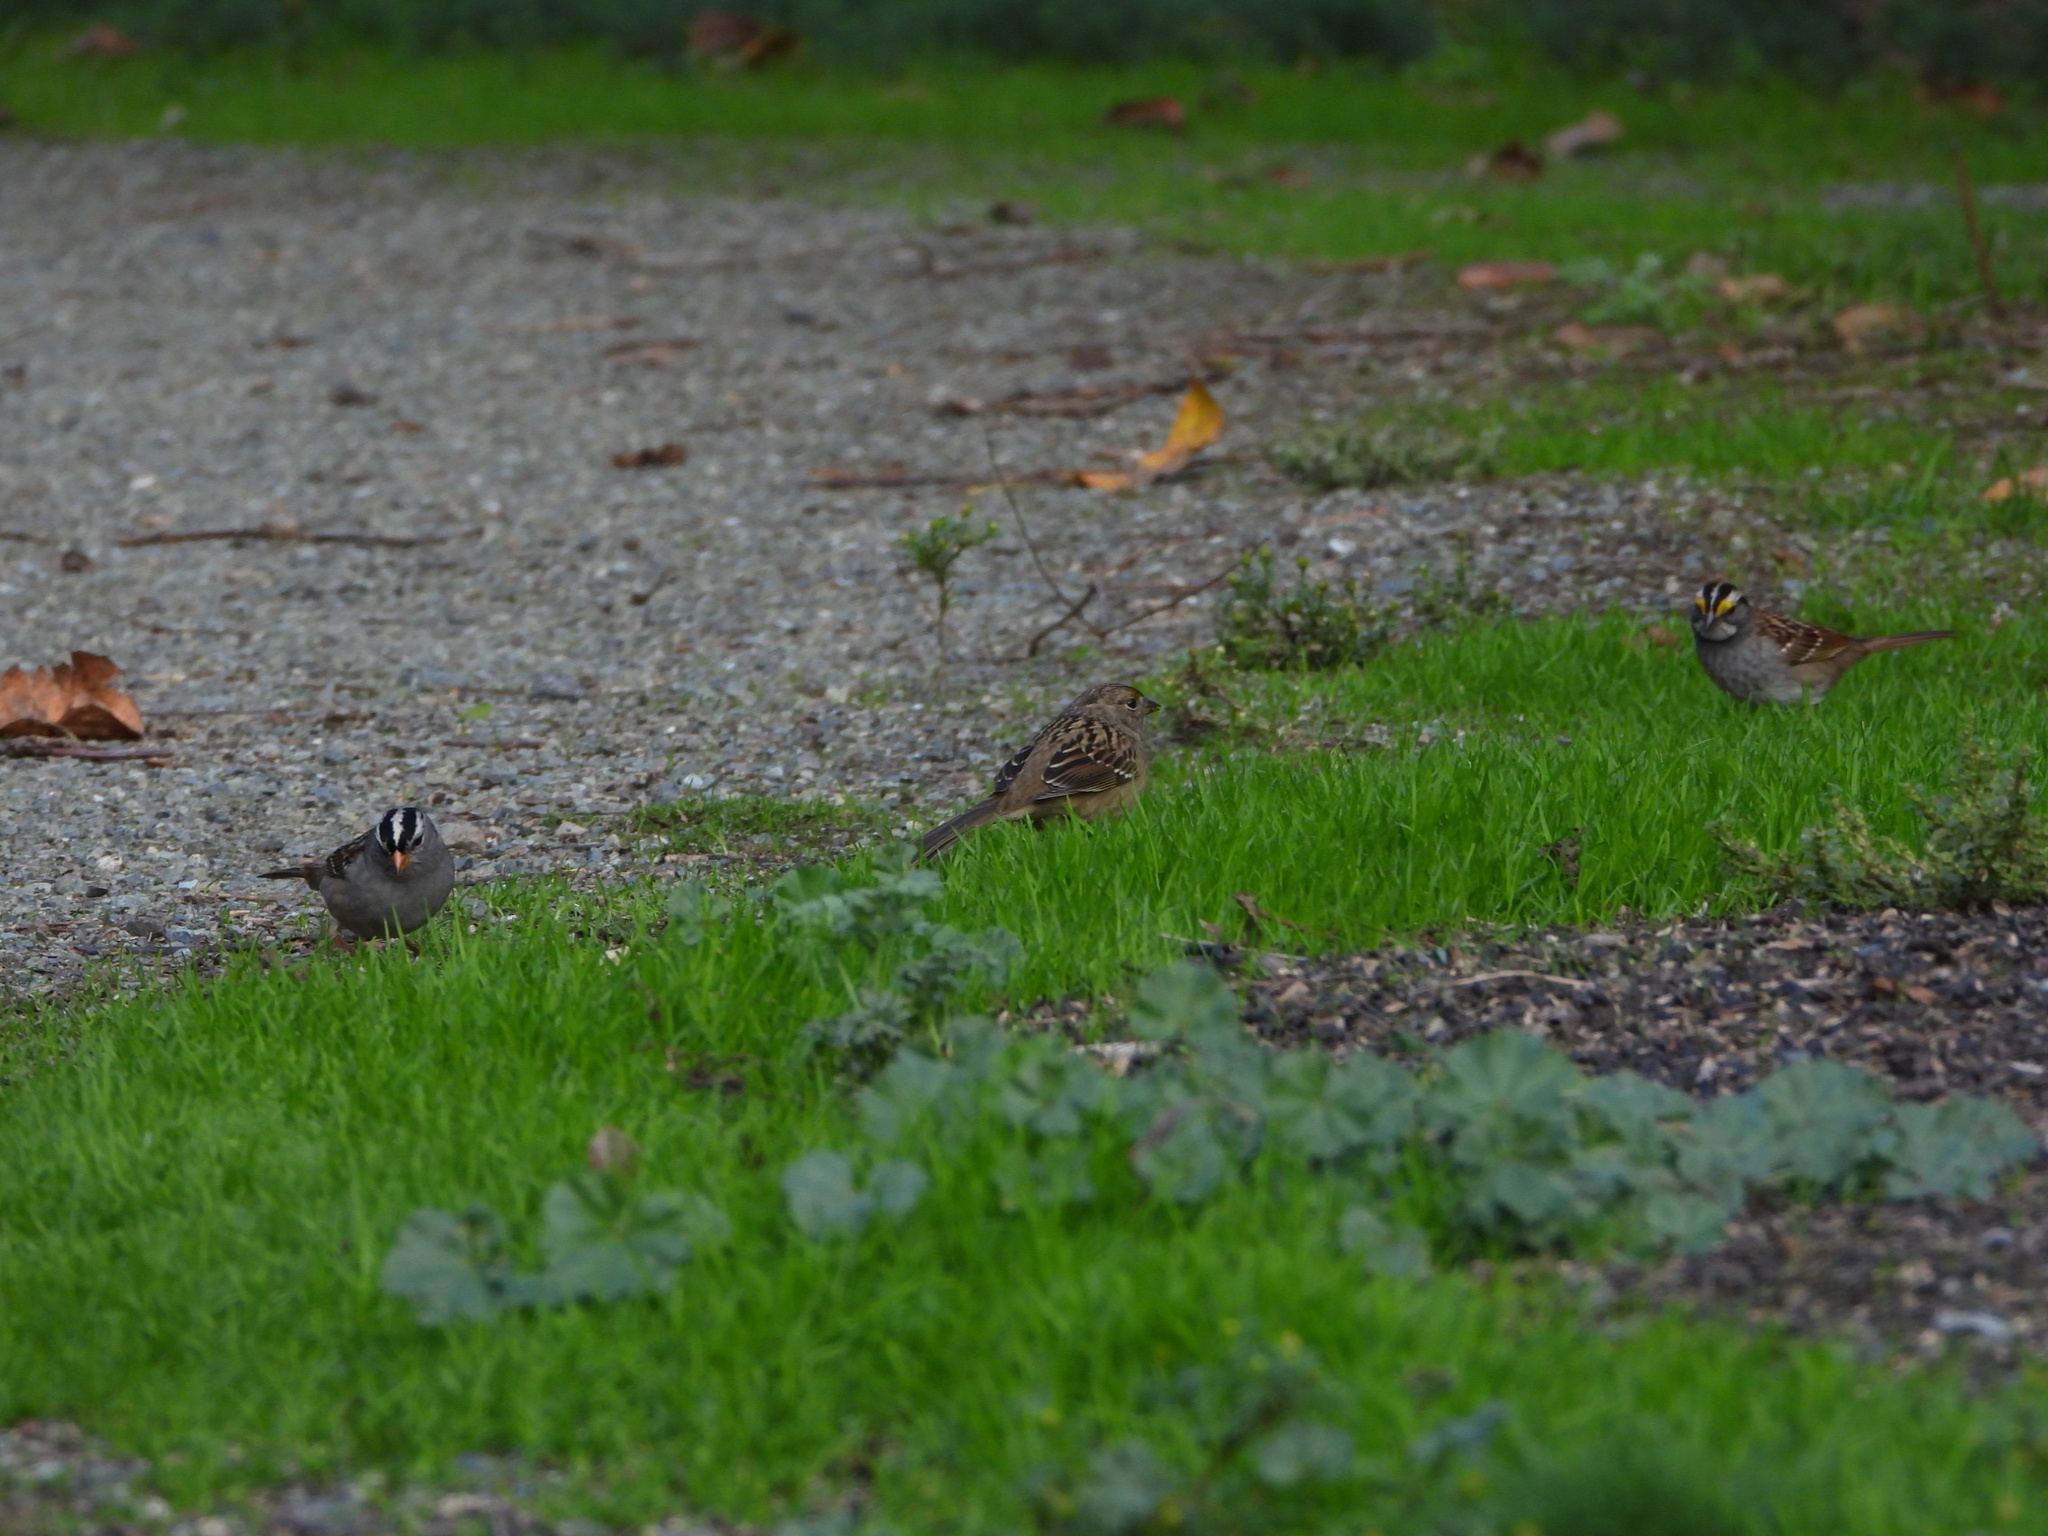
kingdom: Animalia
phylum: Chordata
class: Aves
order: Passeriformes
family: Passerellidae
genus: Zonotrichia
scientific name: Zonotrichia atricapilla
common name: Golden-crowned sparrow
